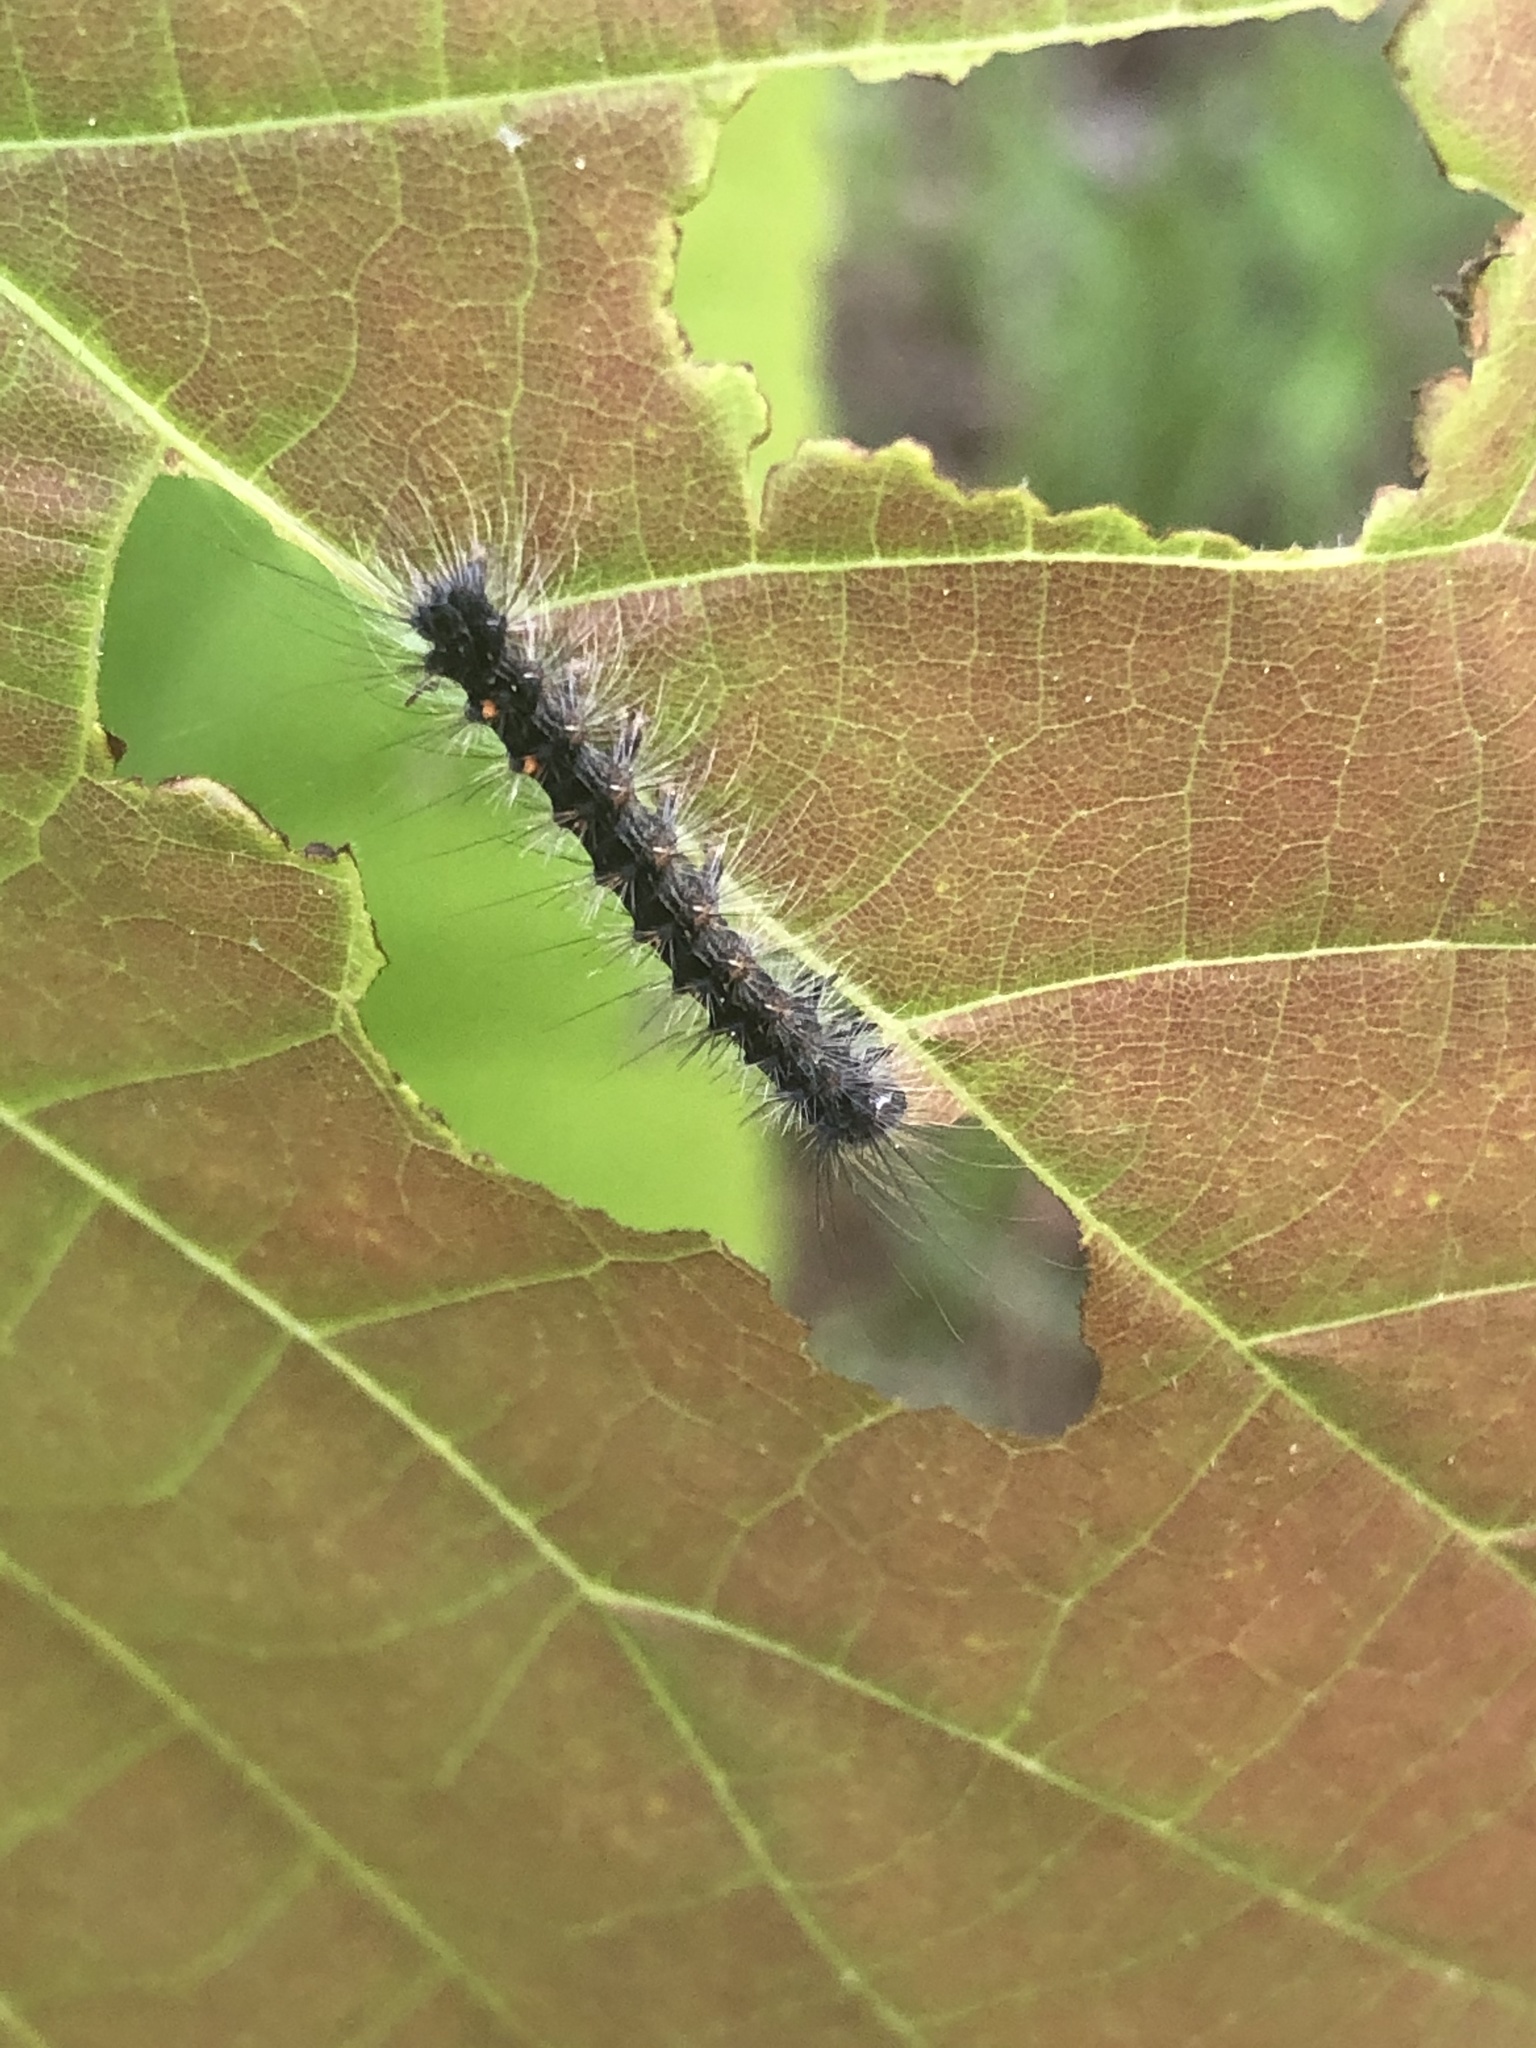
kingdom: Animalia
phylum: Arthropoda
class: Insecta
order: Lepidoptera
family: Erebidae
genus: Lymantria
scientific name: Lymantria dispar
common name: Gypsy moth
